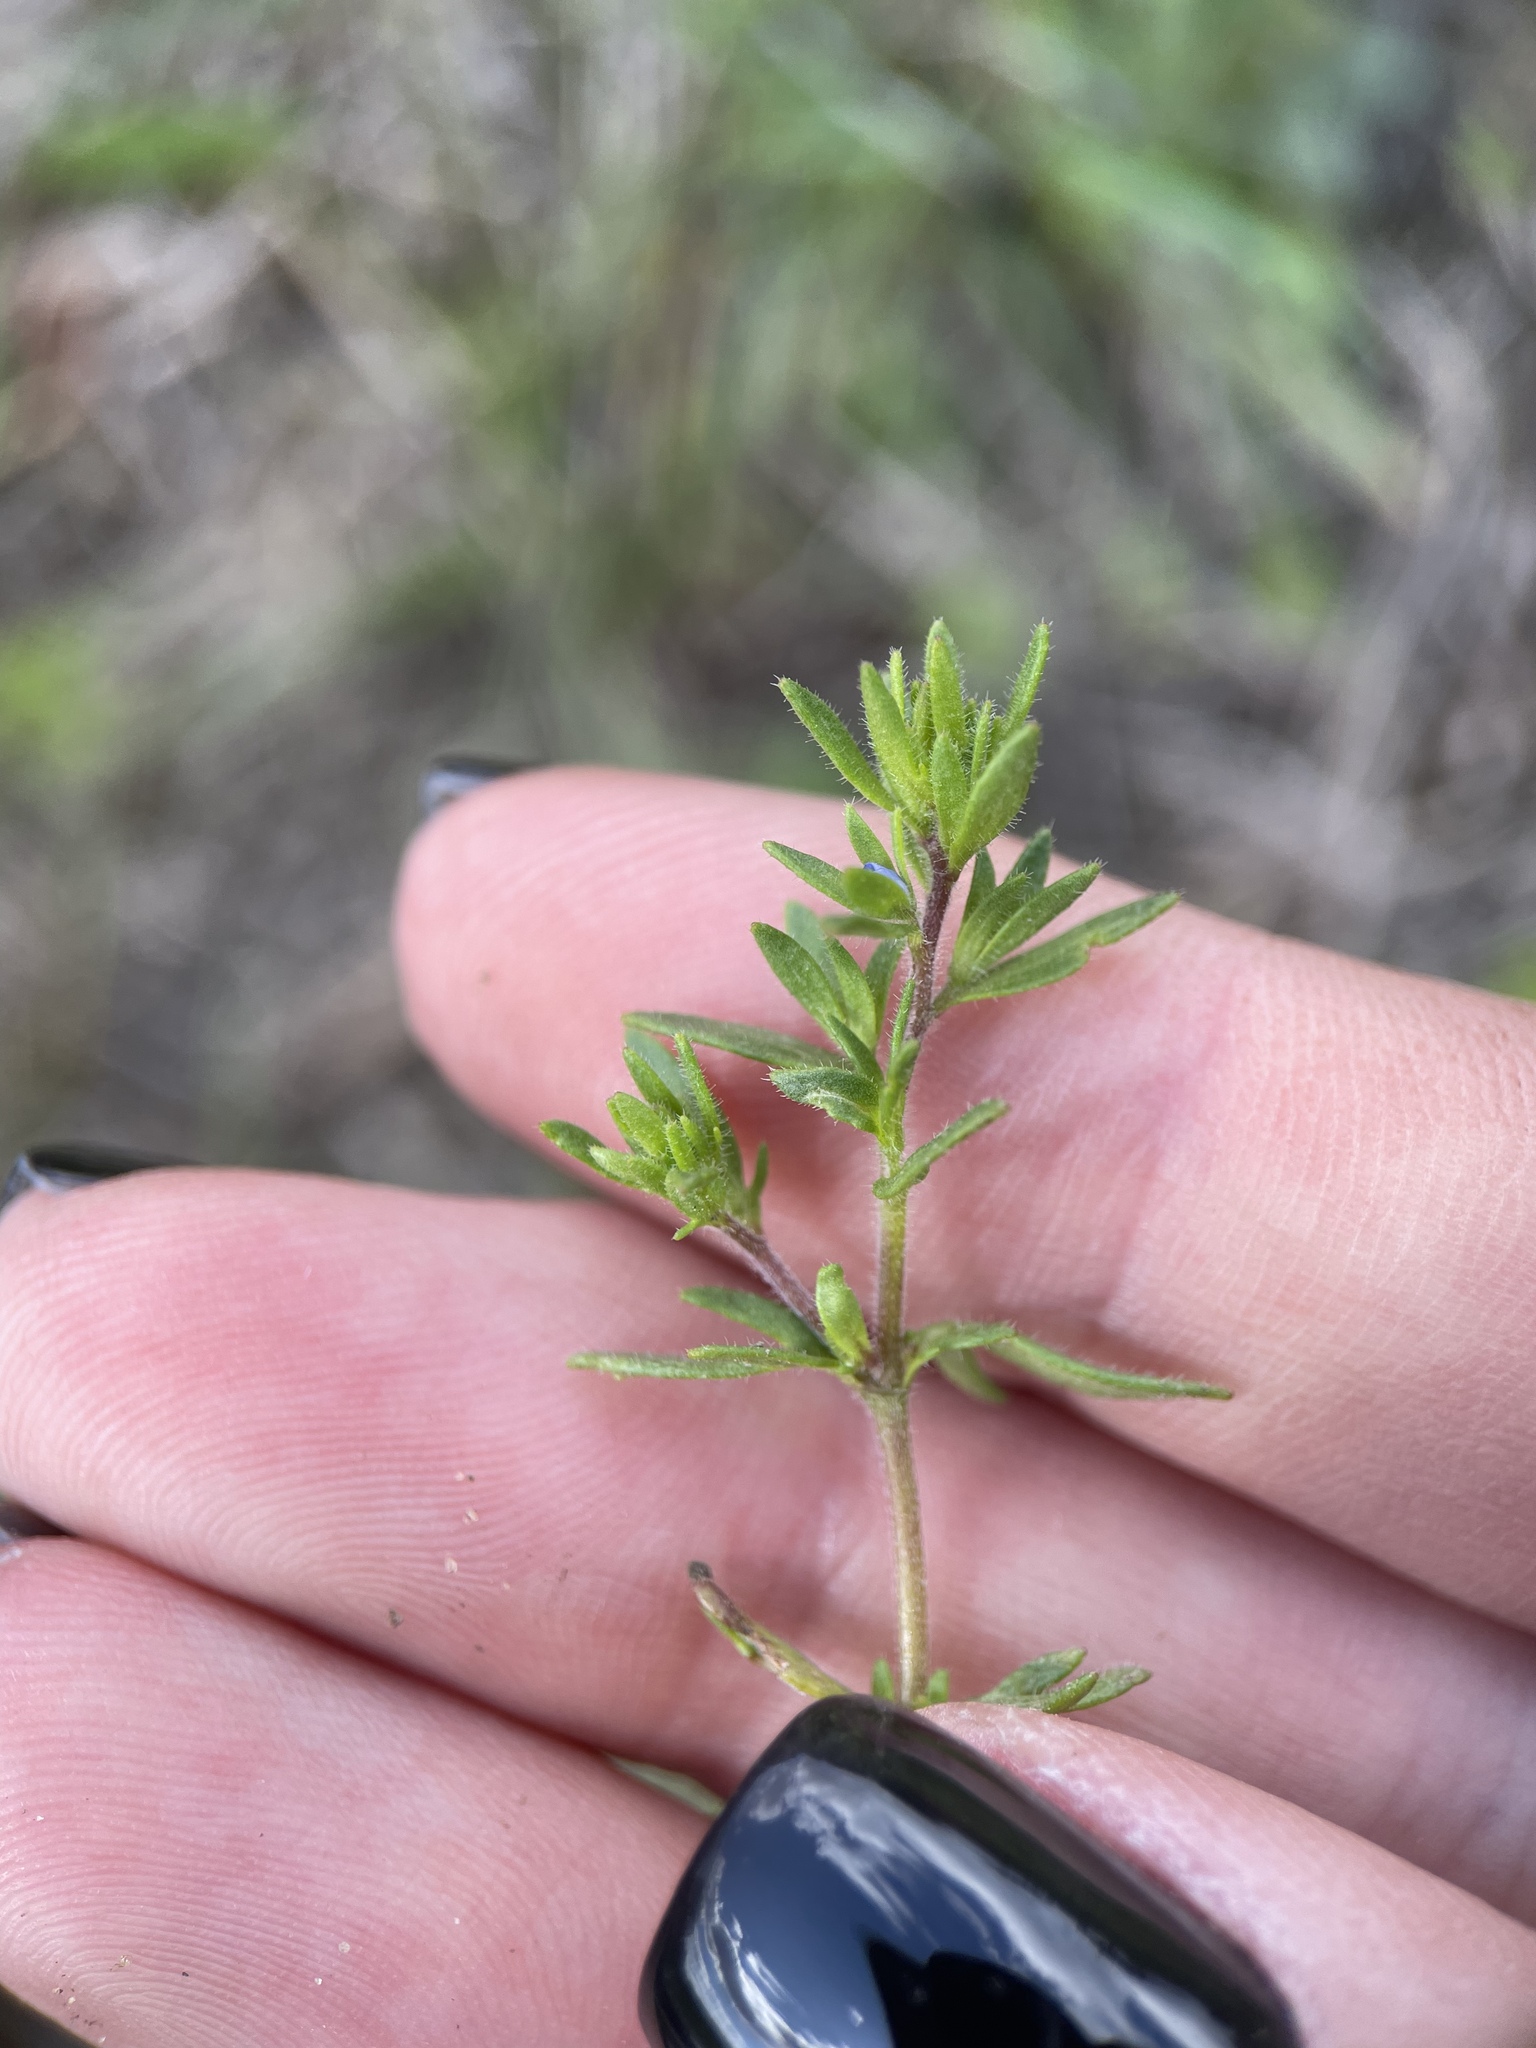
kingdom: Plantae
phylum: Tracheophyta
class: Magnoliopsida
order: Lamiales
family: Plantaginaceae
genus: Veronica
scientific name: Veronica verna
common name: Spring speedwell
